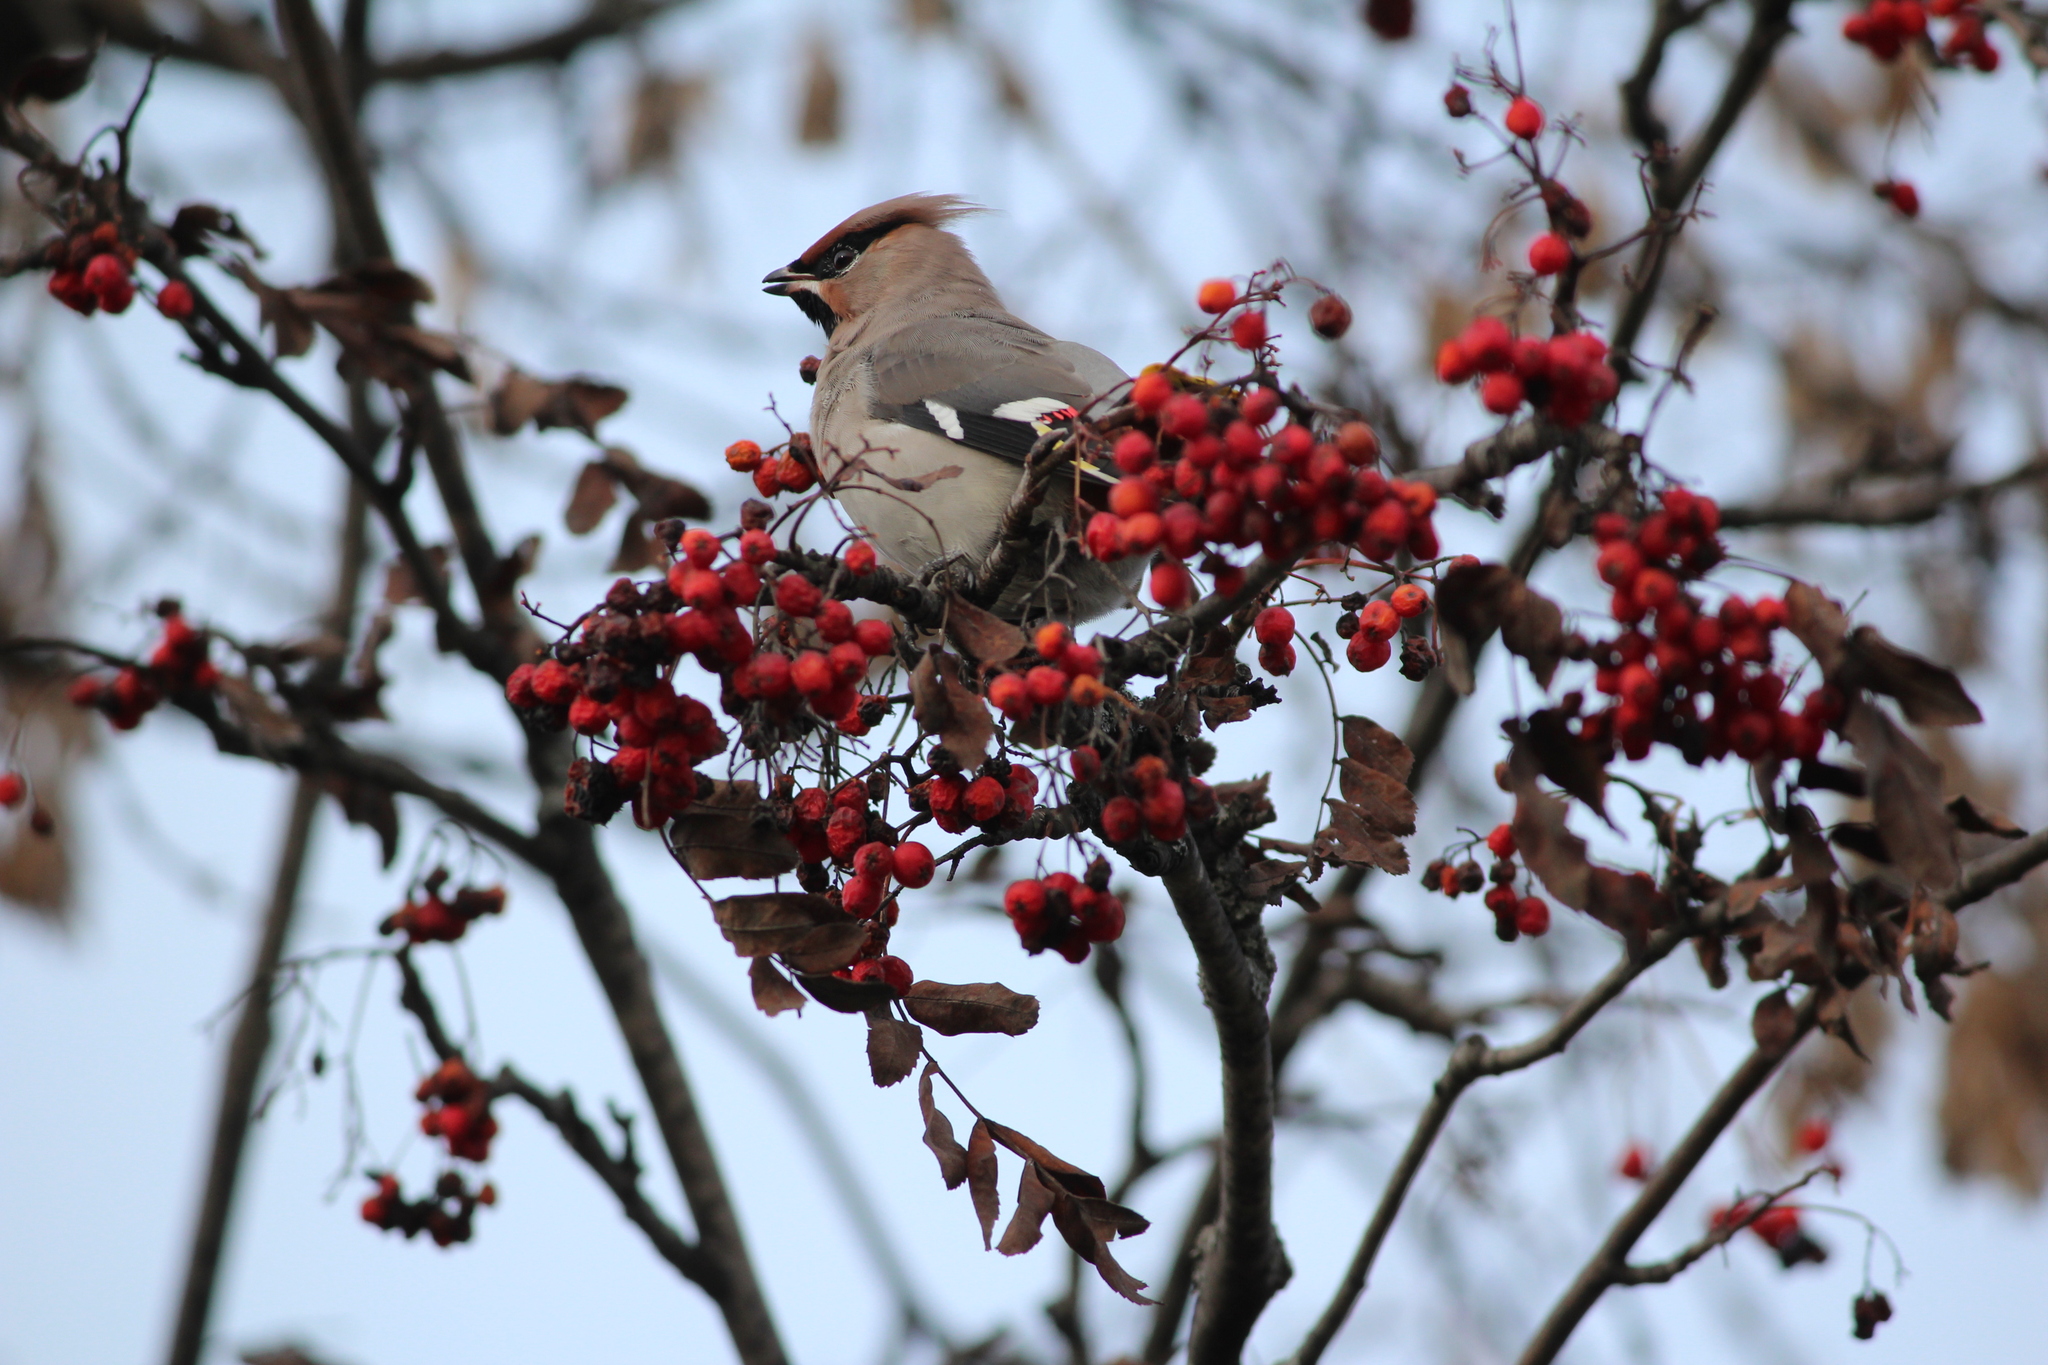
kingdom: Animalia
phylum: Chordata
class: Aves
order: Passeriformes
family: Bombycillidae
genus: Bombycilla
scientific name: Bombycilla garrulus
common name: Bohemian waxwing
